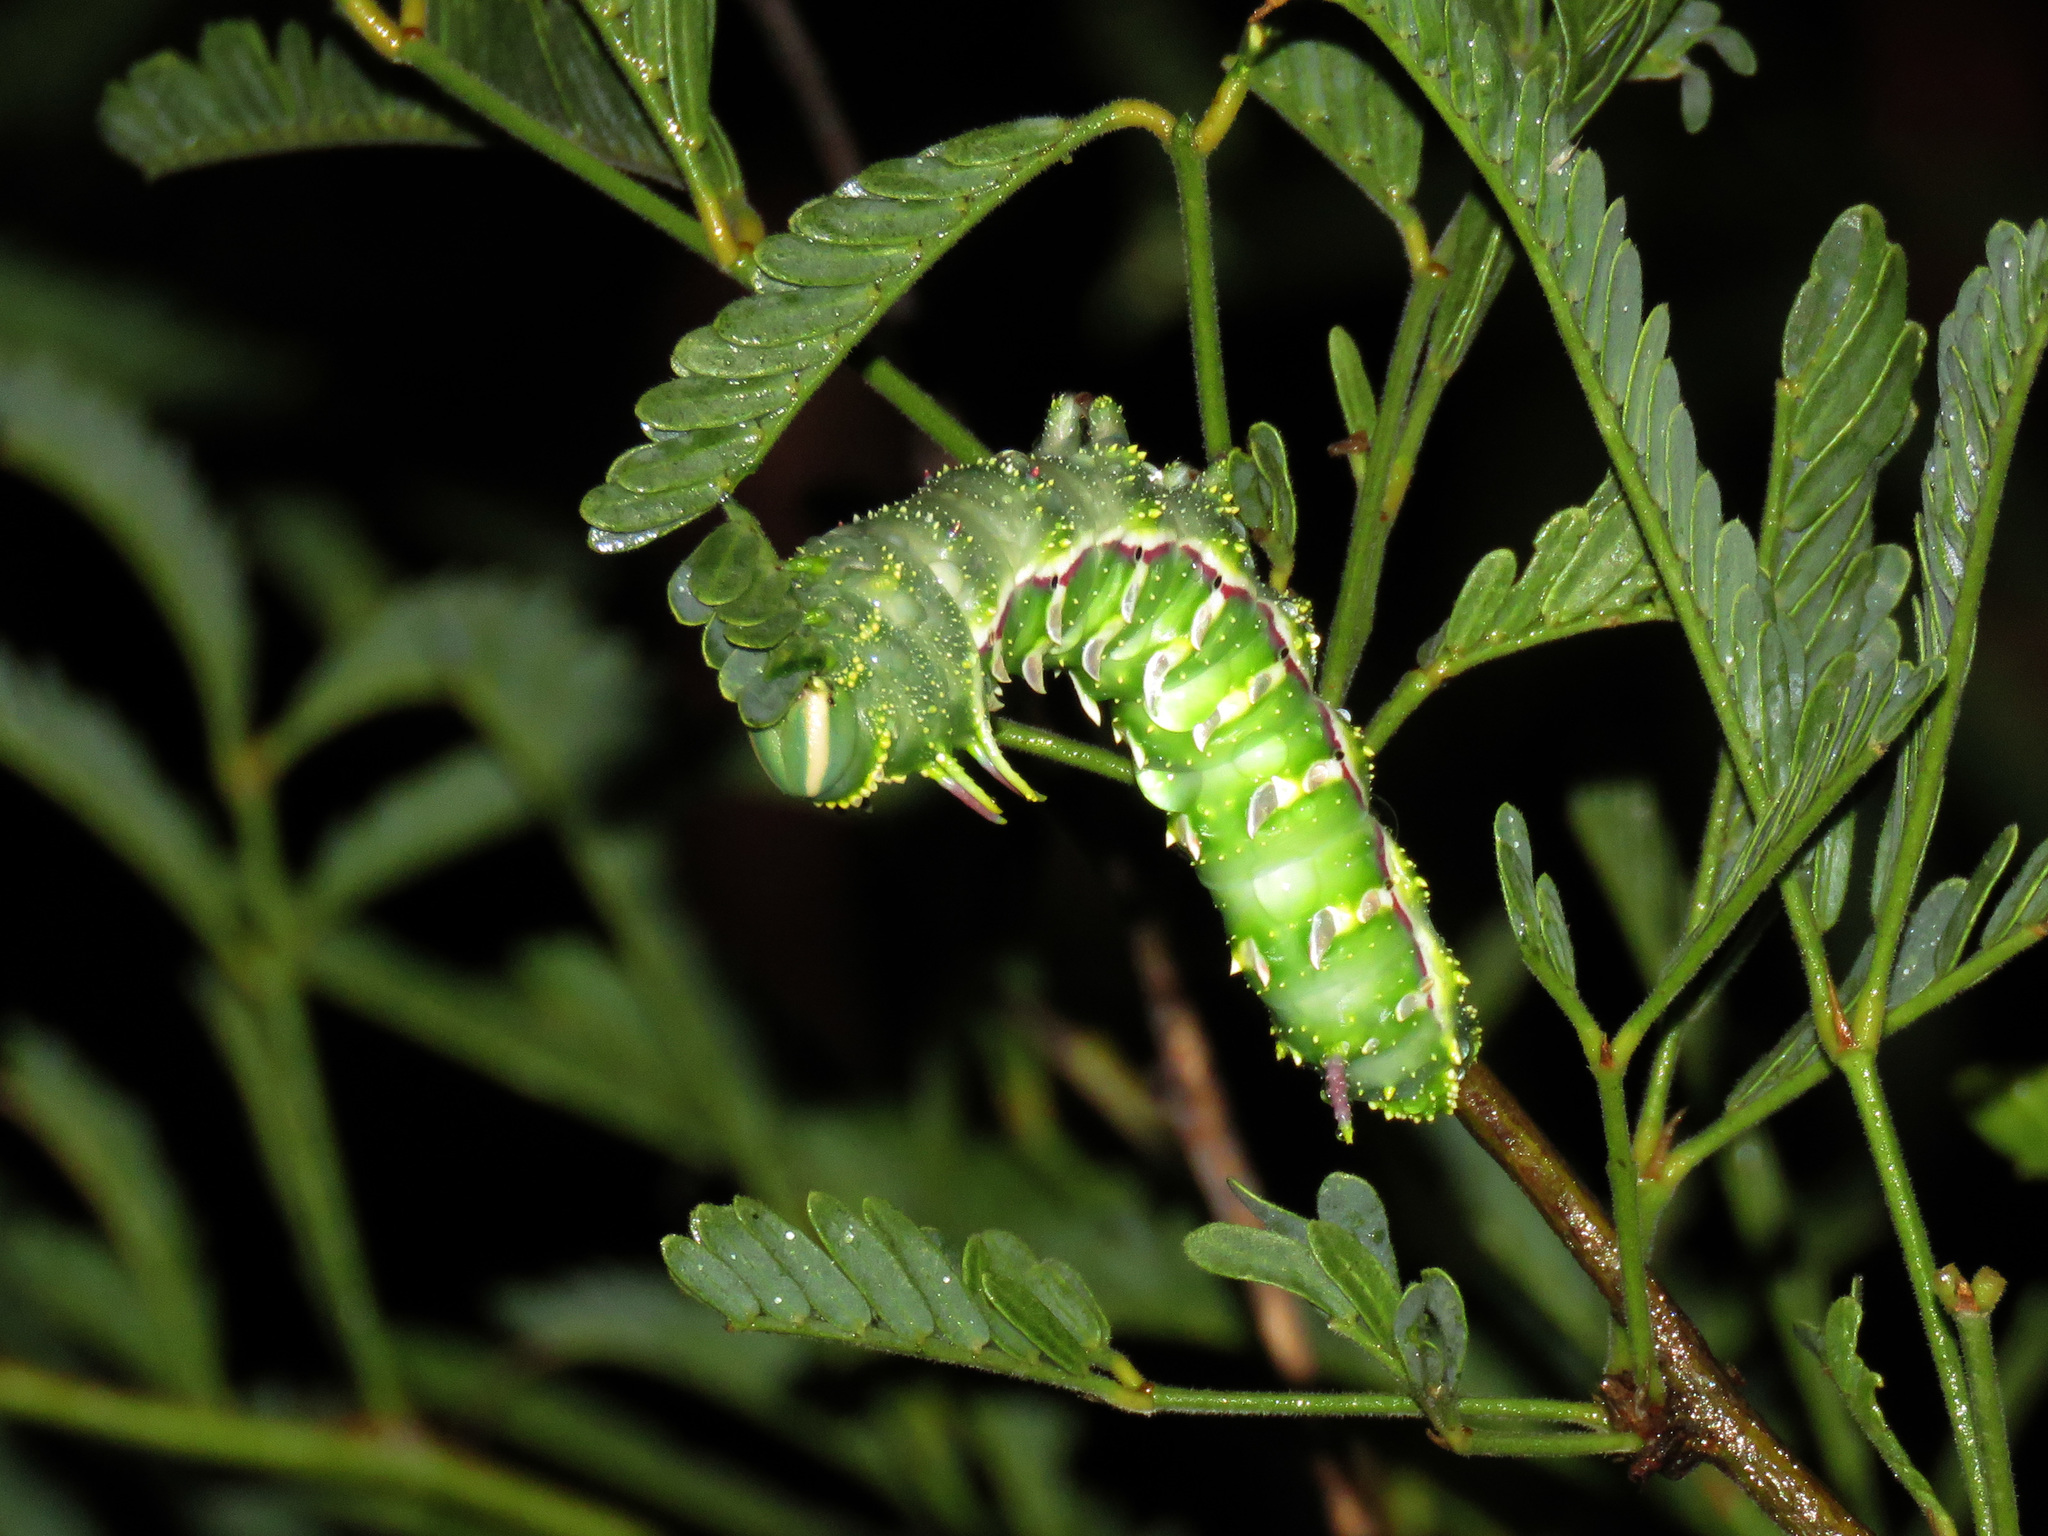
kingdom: Animalia
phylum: Arthropoda
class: Insecta
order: Lepidoptera
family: Saturniidae
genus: Syssphinx
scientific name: Syssphinx hubbardi
